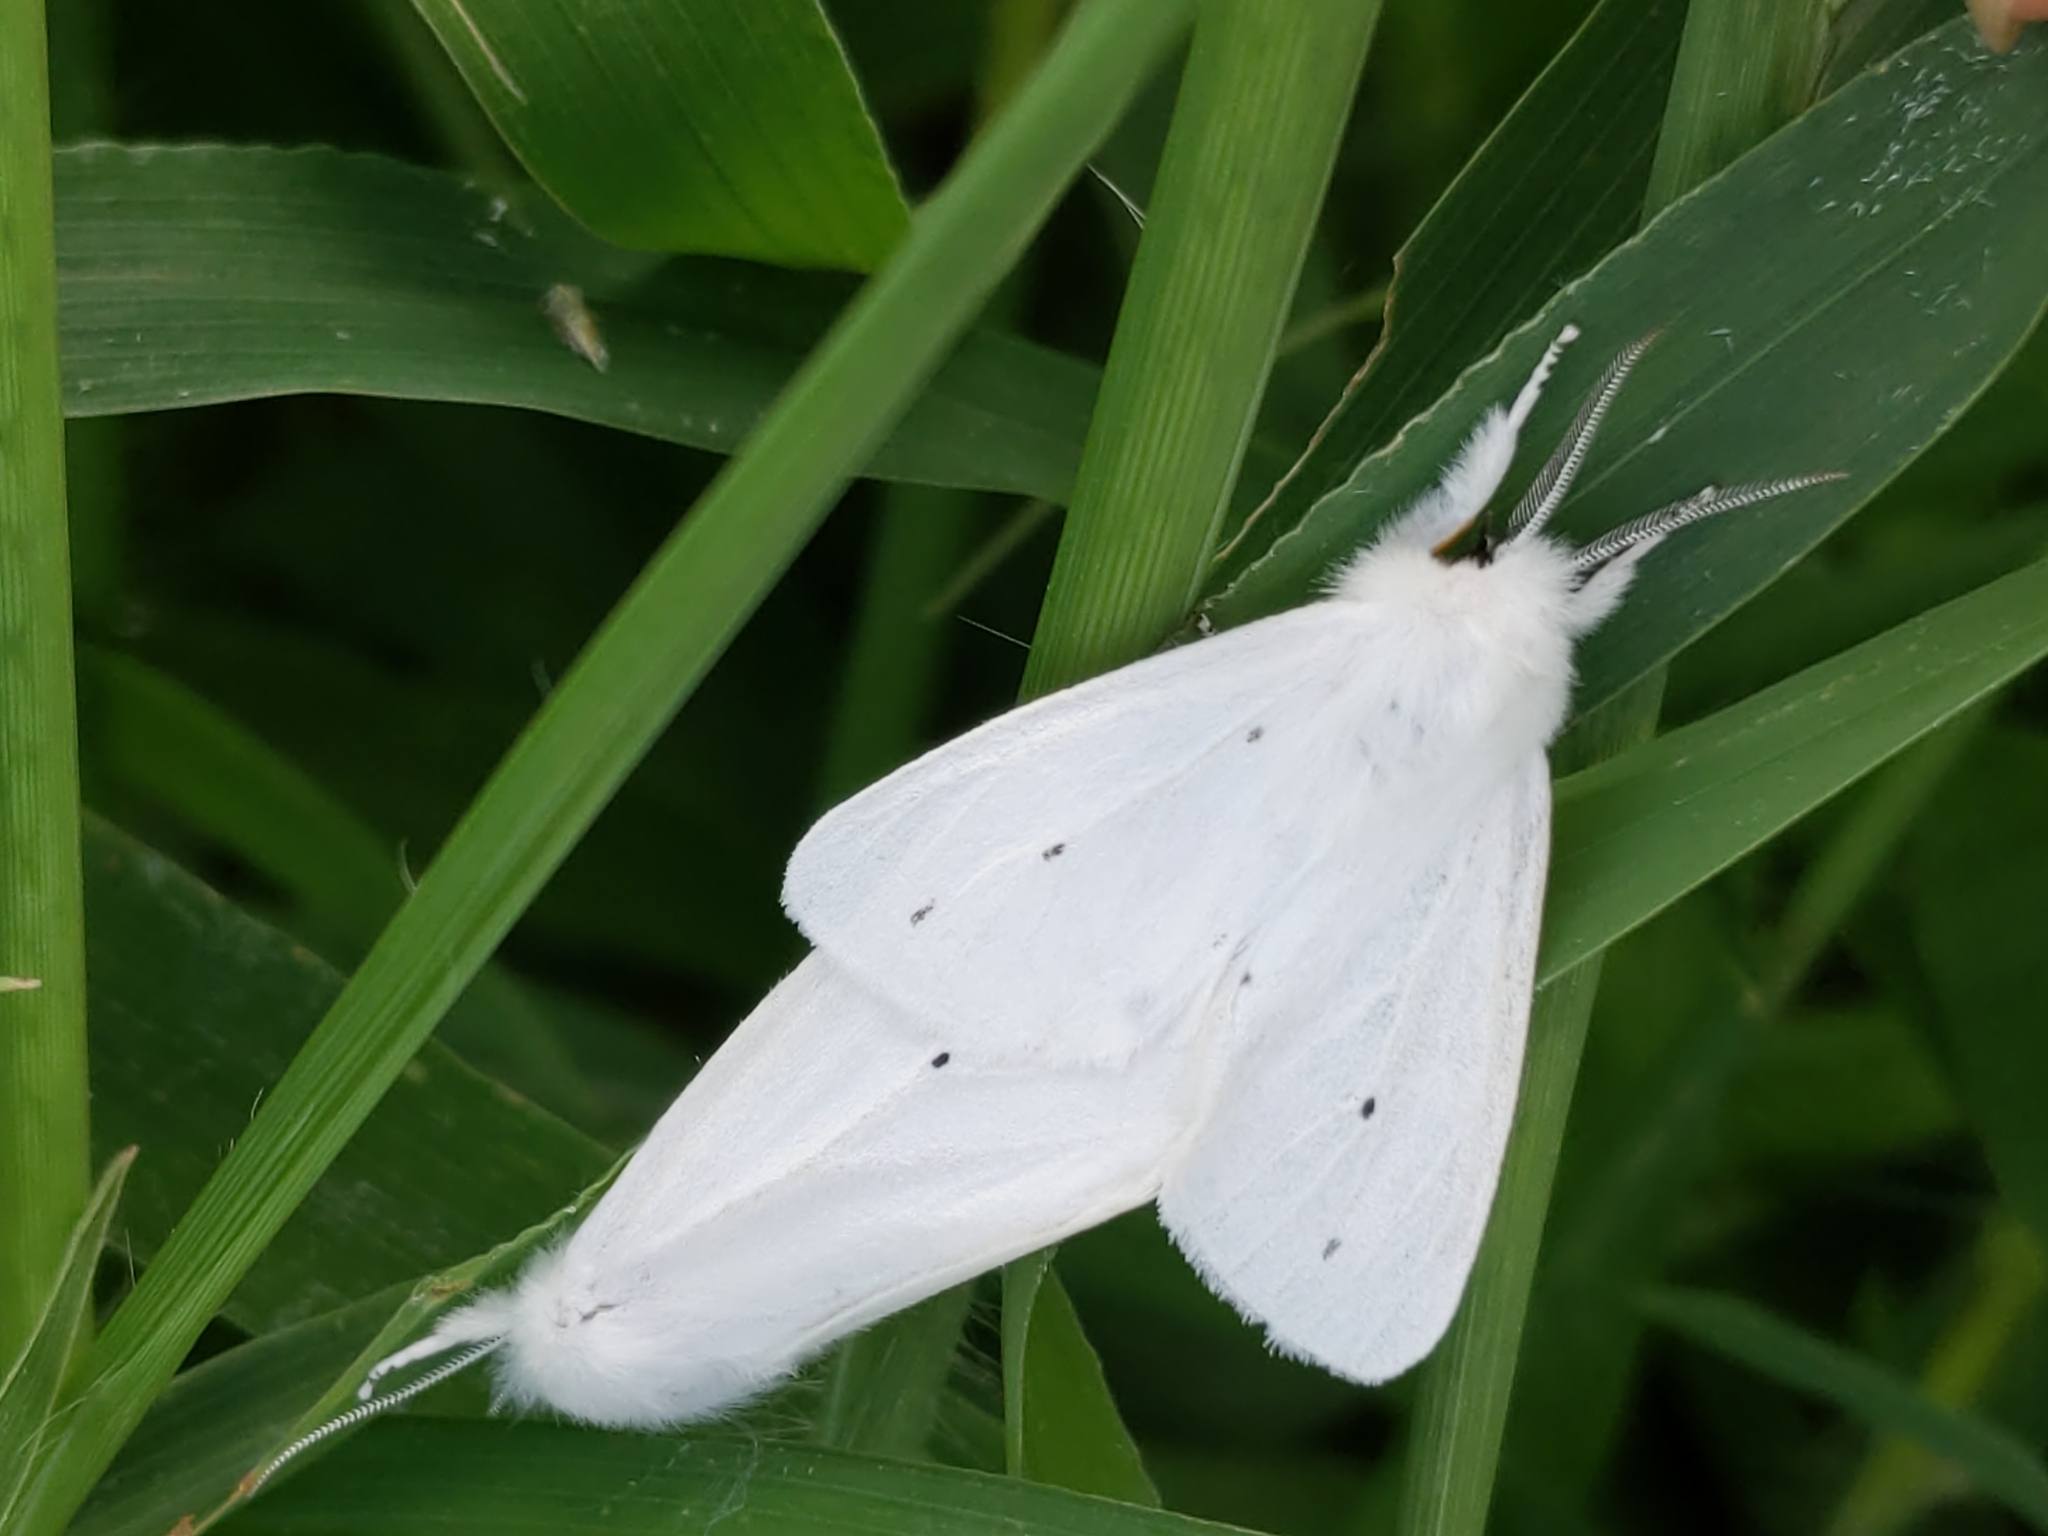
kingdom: Animalia
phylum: Arthropoda
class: Insecta
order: Lepidoptera
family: Erebidae
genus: Spilosoma
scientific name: Spilosoma virginica
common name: Virginia tiger moth
